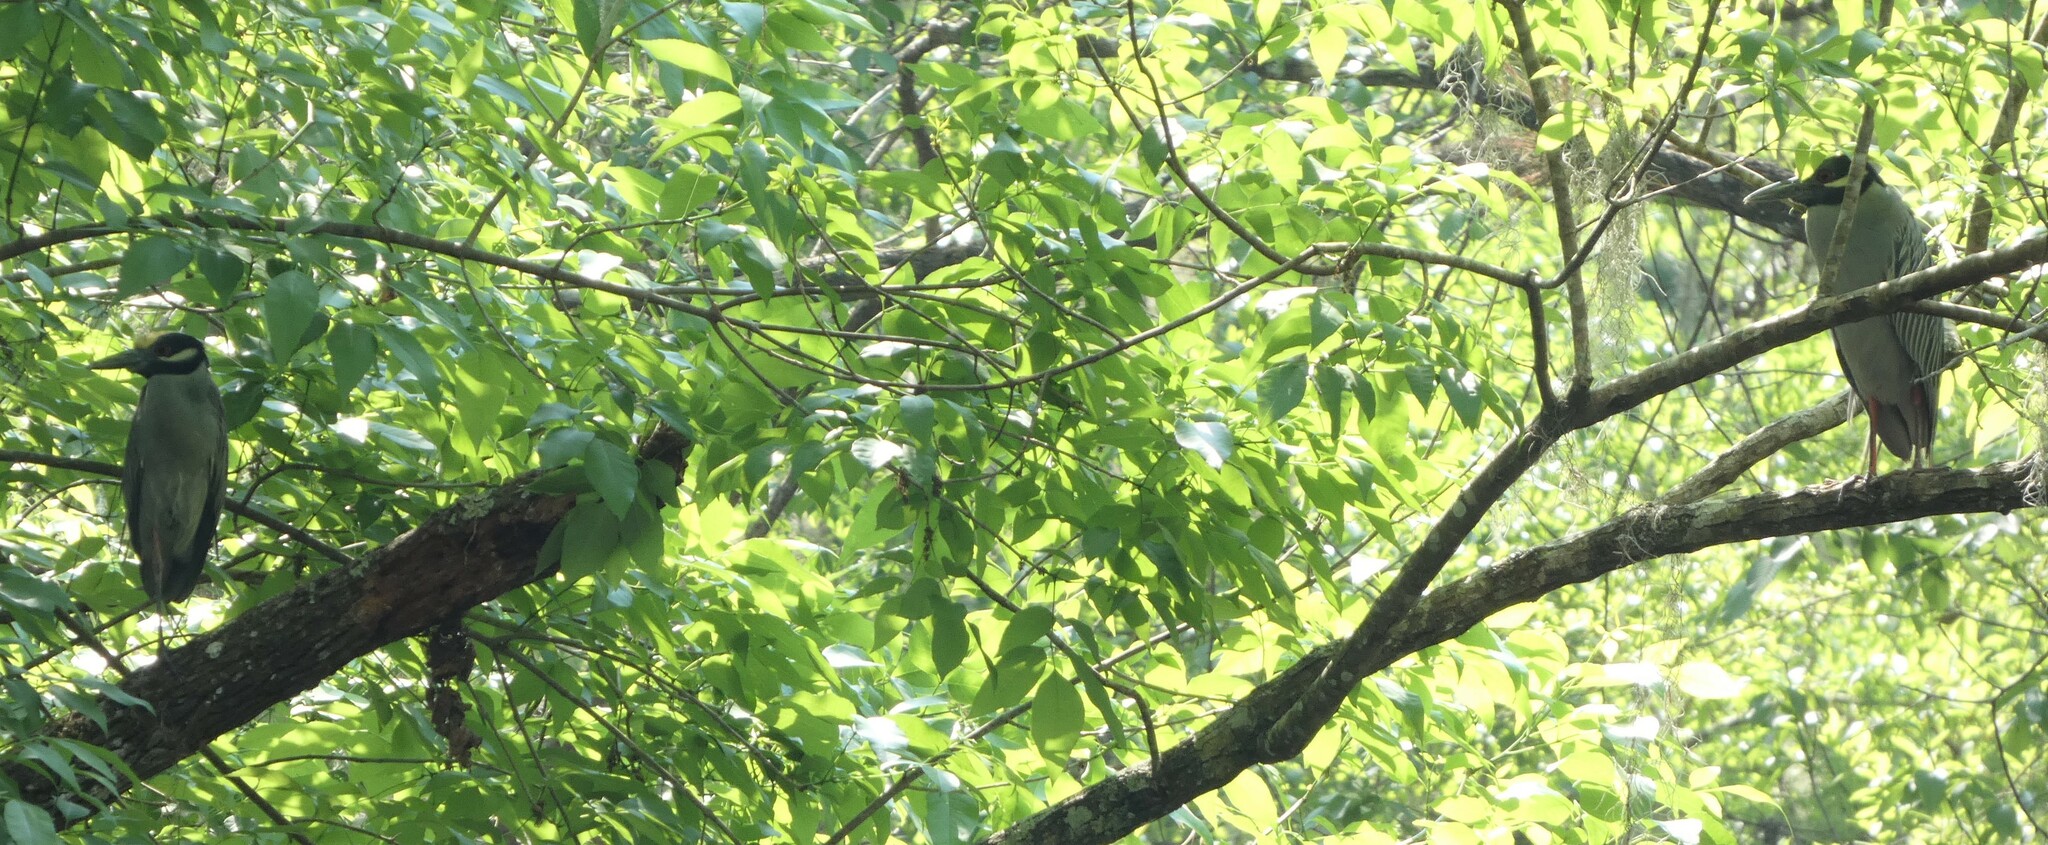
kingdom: Animalia
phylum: Chordata
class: Aves
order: Pelecaniformes
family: Ardeidae
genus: Nyctanassa
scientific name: Nyctanassa violacea
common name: Yellow-crowned night heron
